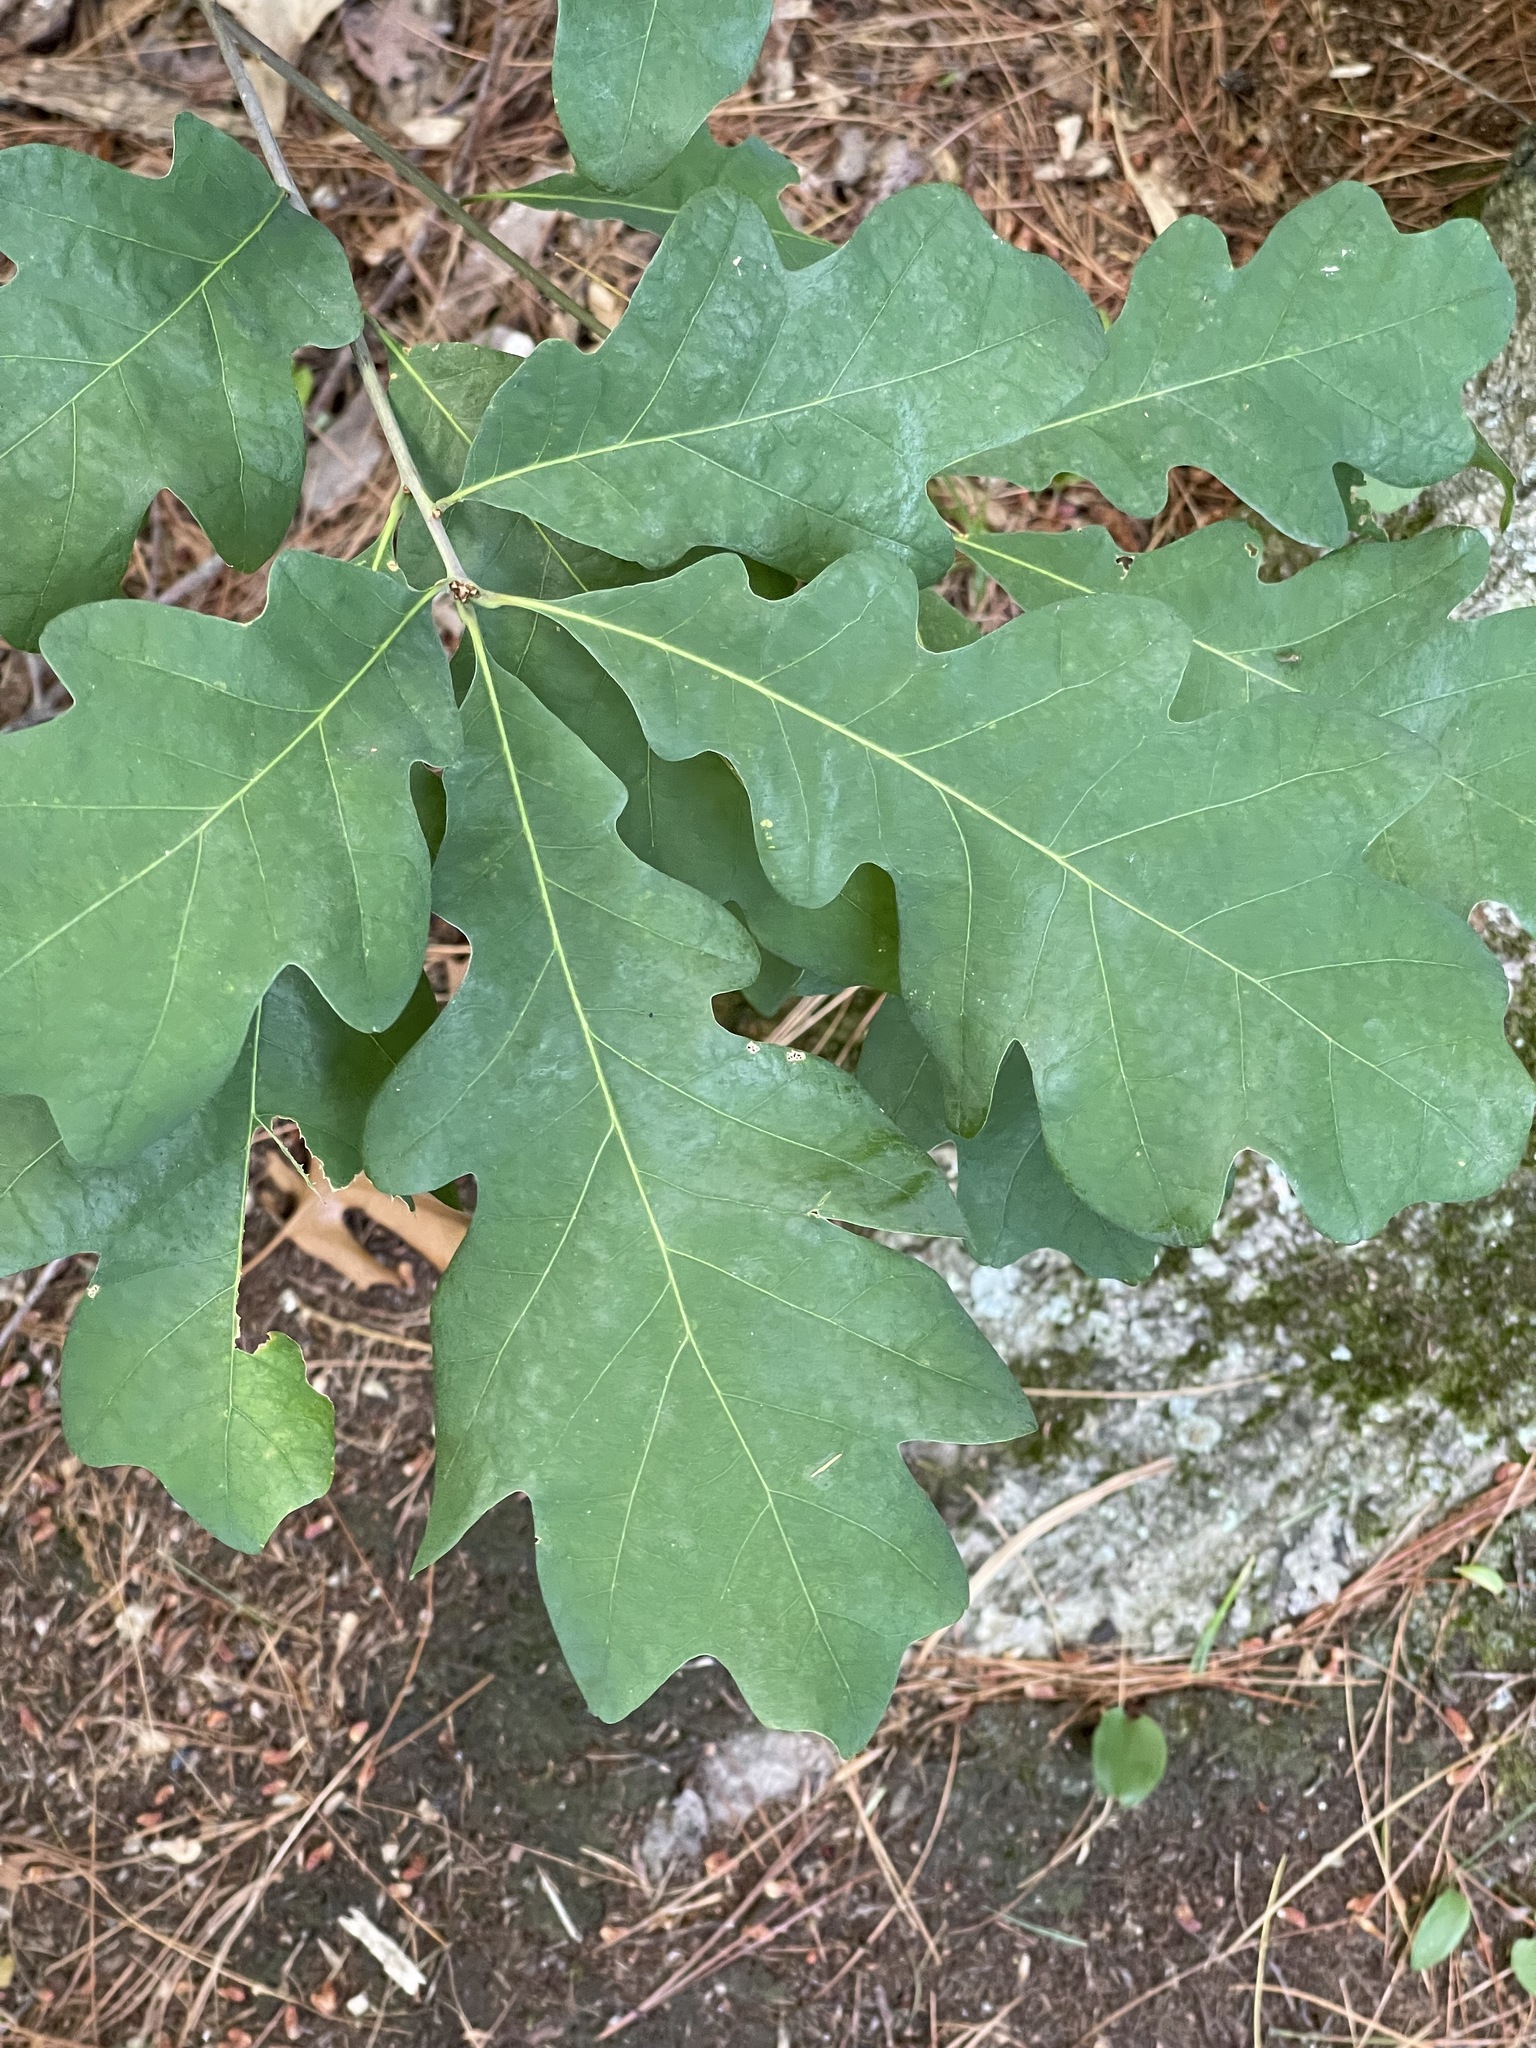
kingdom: Plantae
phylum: Tracheophyta
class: Magnoliopsida
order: Fagales
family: Fagaceae
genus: Quercus
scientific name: Quercus alba
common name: White oak
